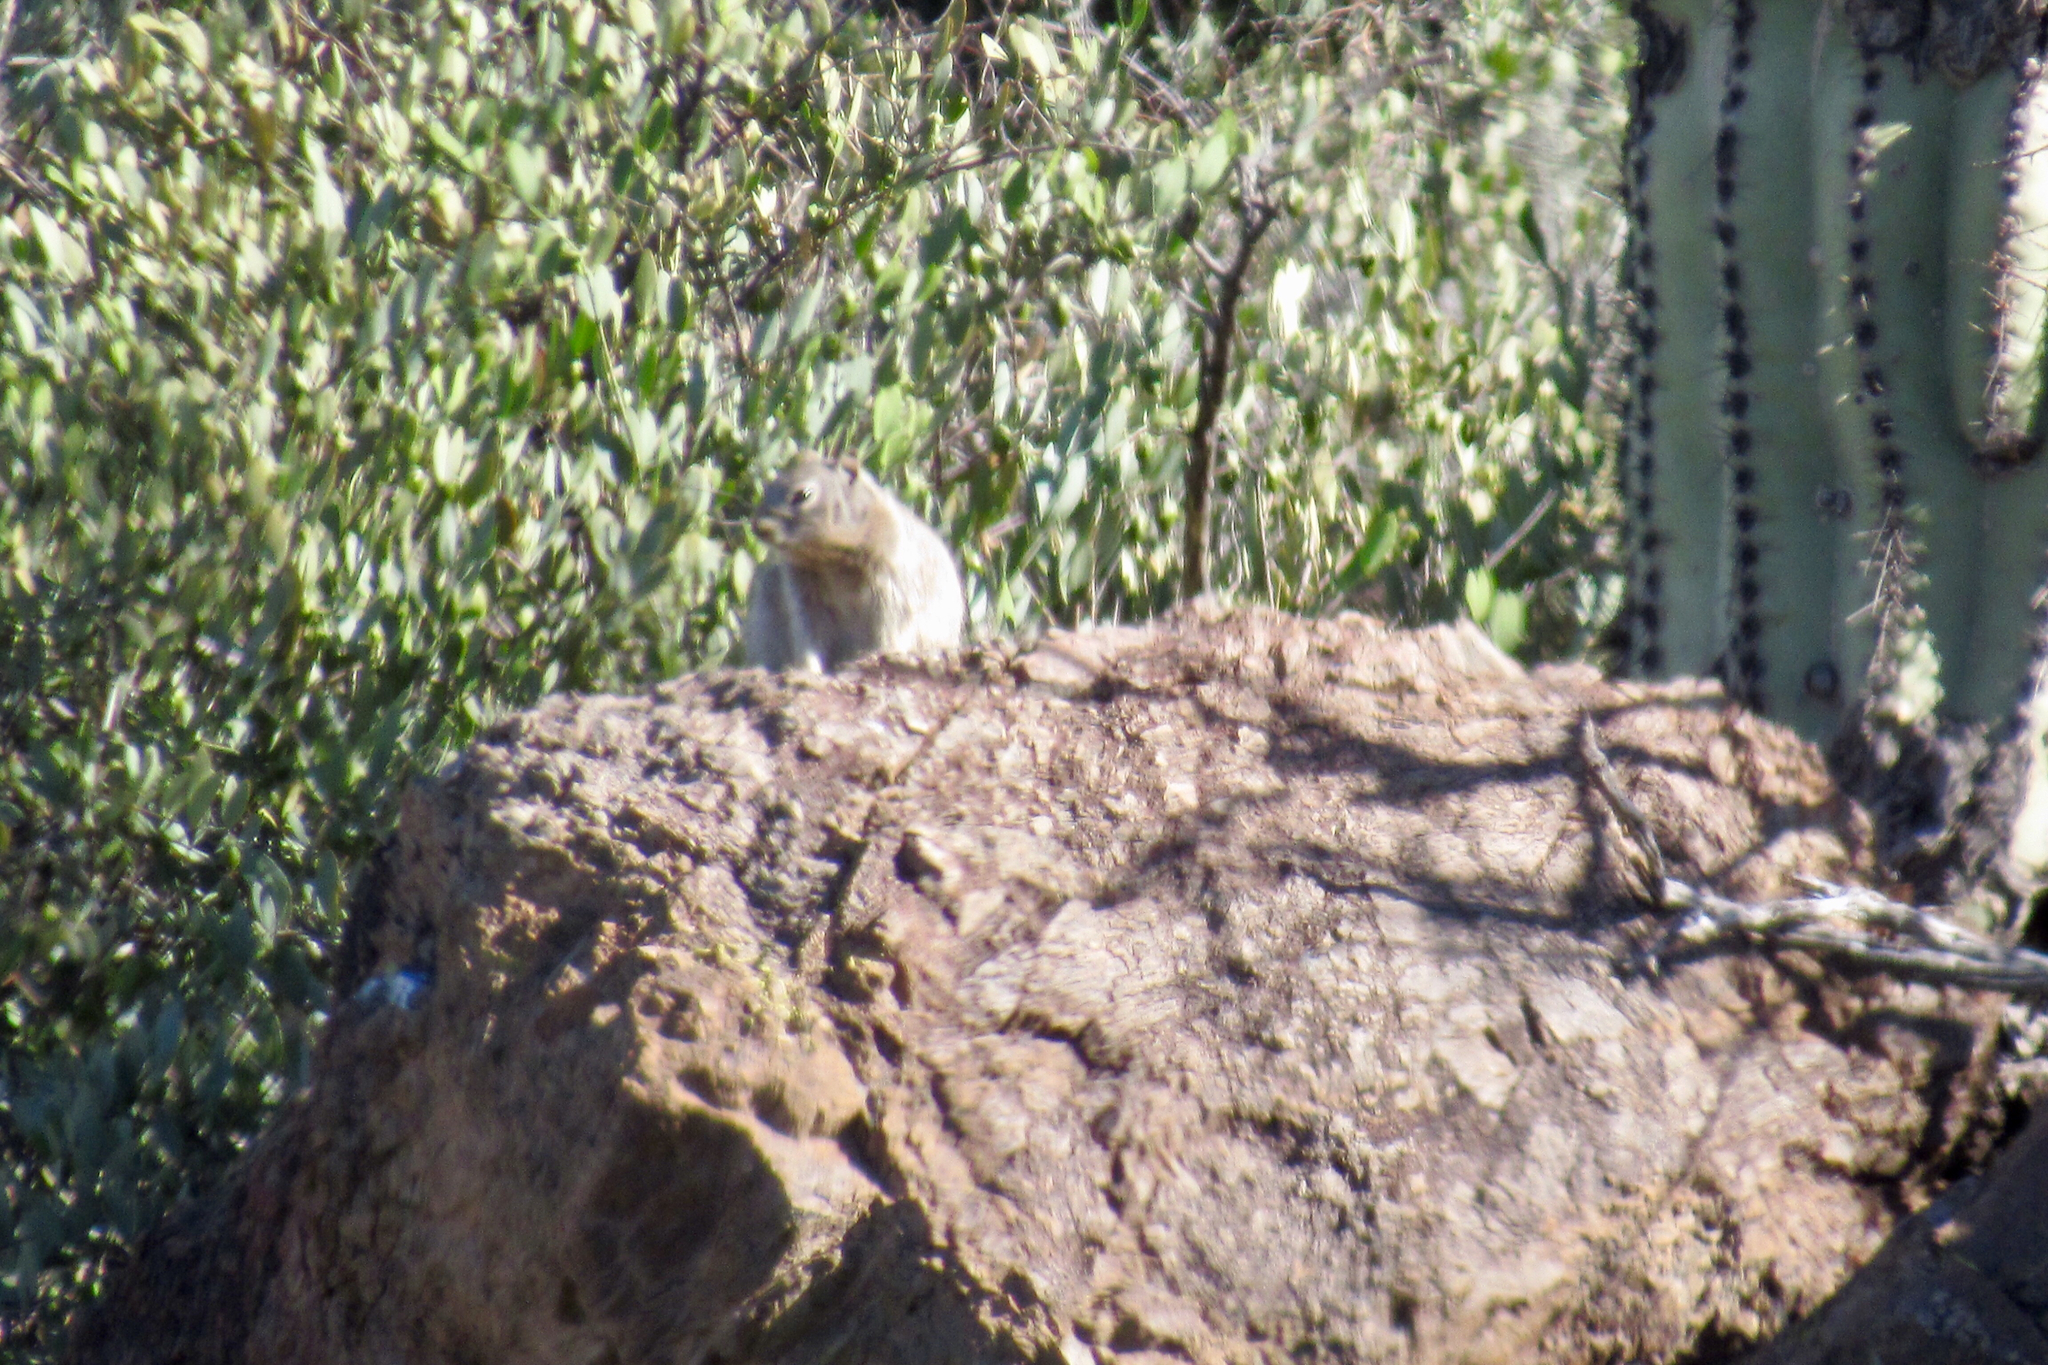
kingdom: Animalia
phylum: Chordata
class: Mammalia
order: Rodentia
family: Sciuridae
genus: Otospermophilus
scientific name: Otospermophilus variegatus
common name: Rock squirrel
